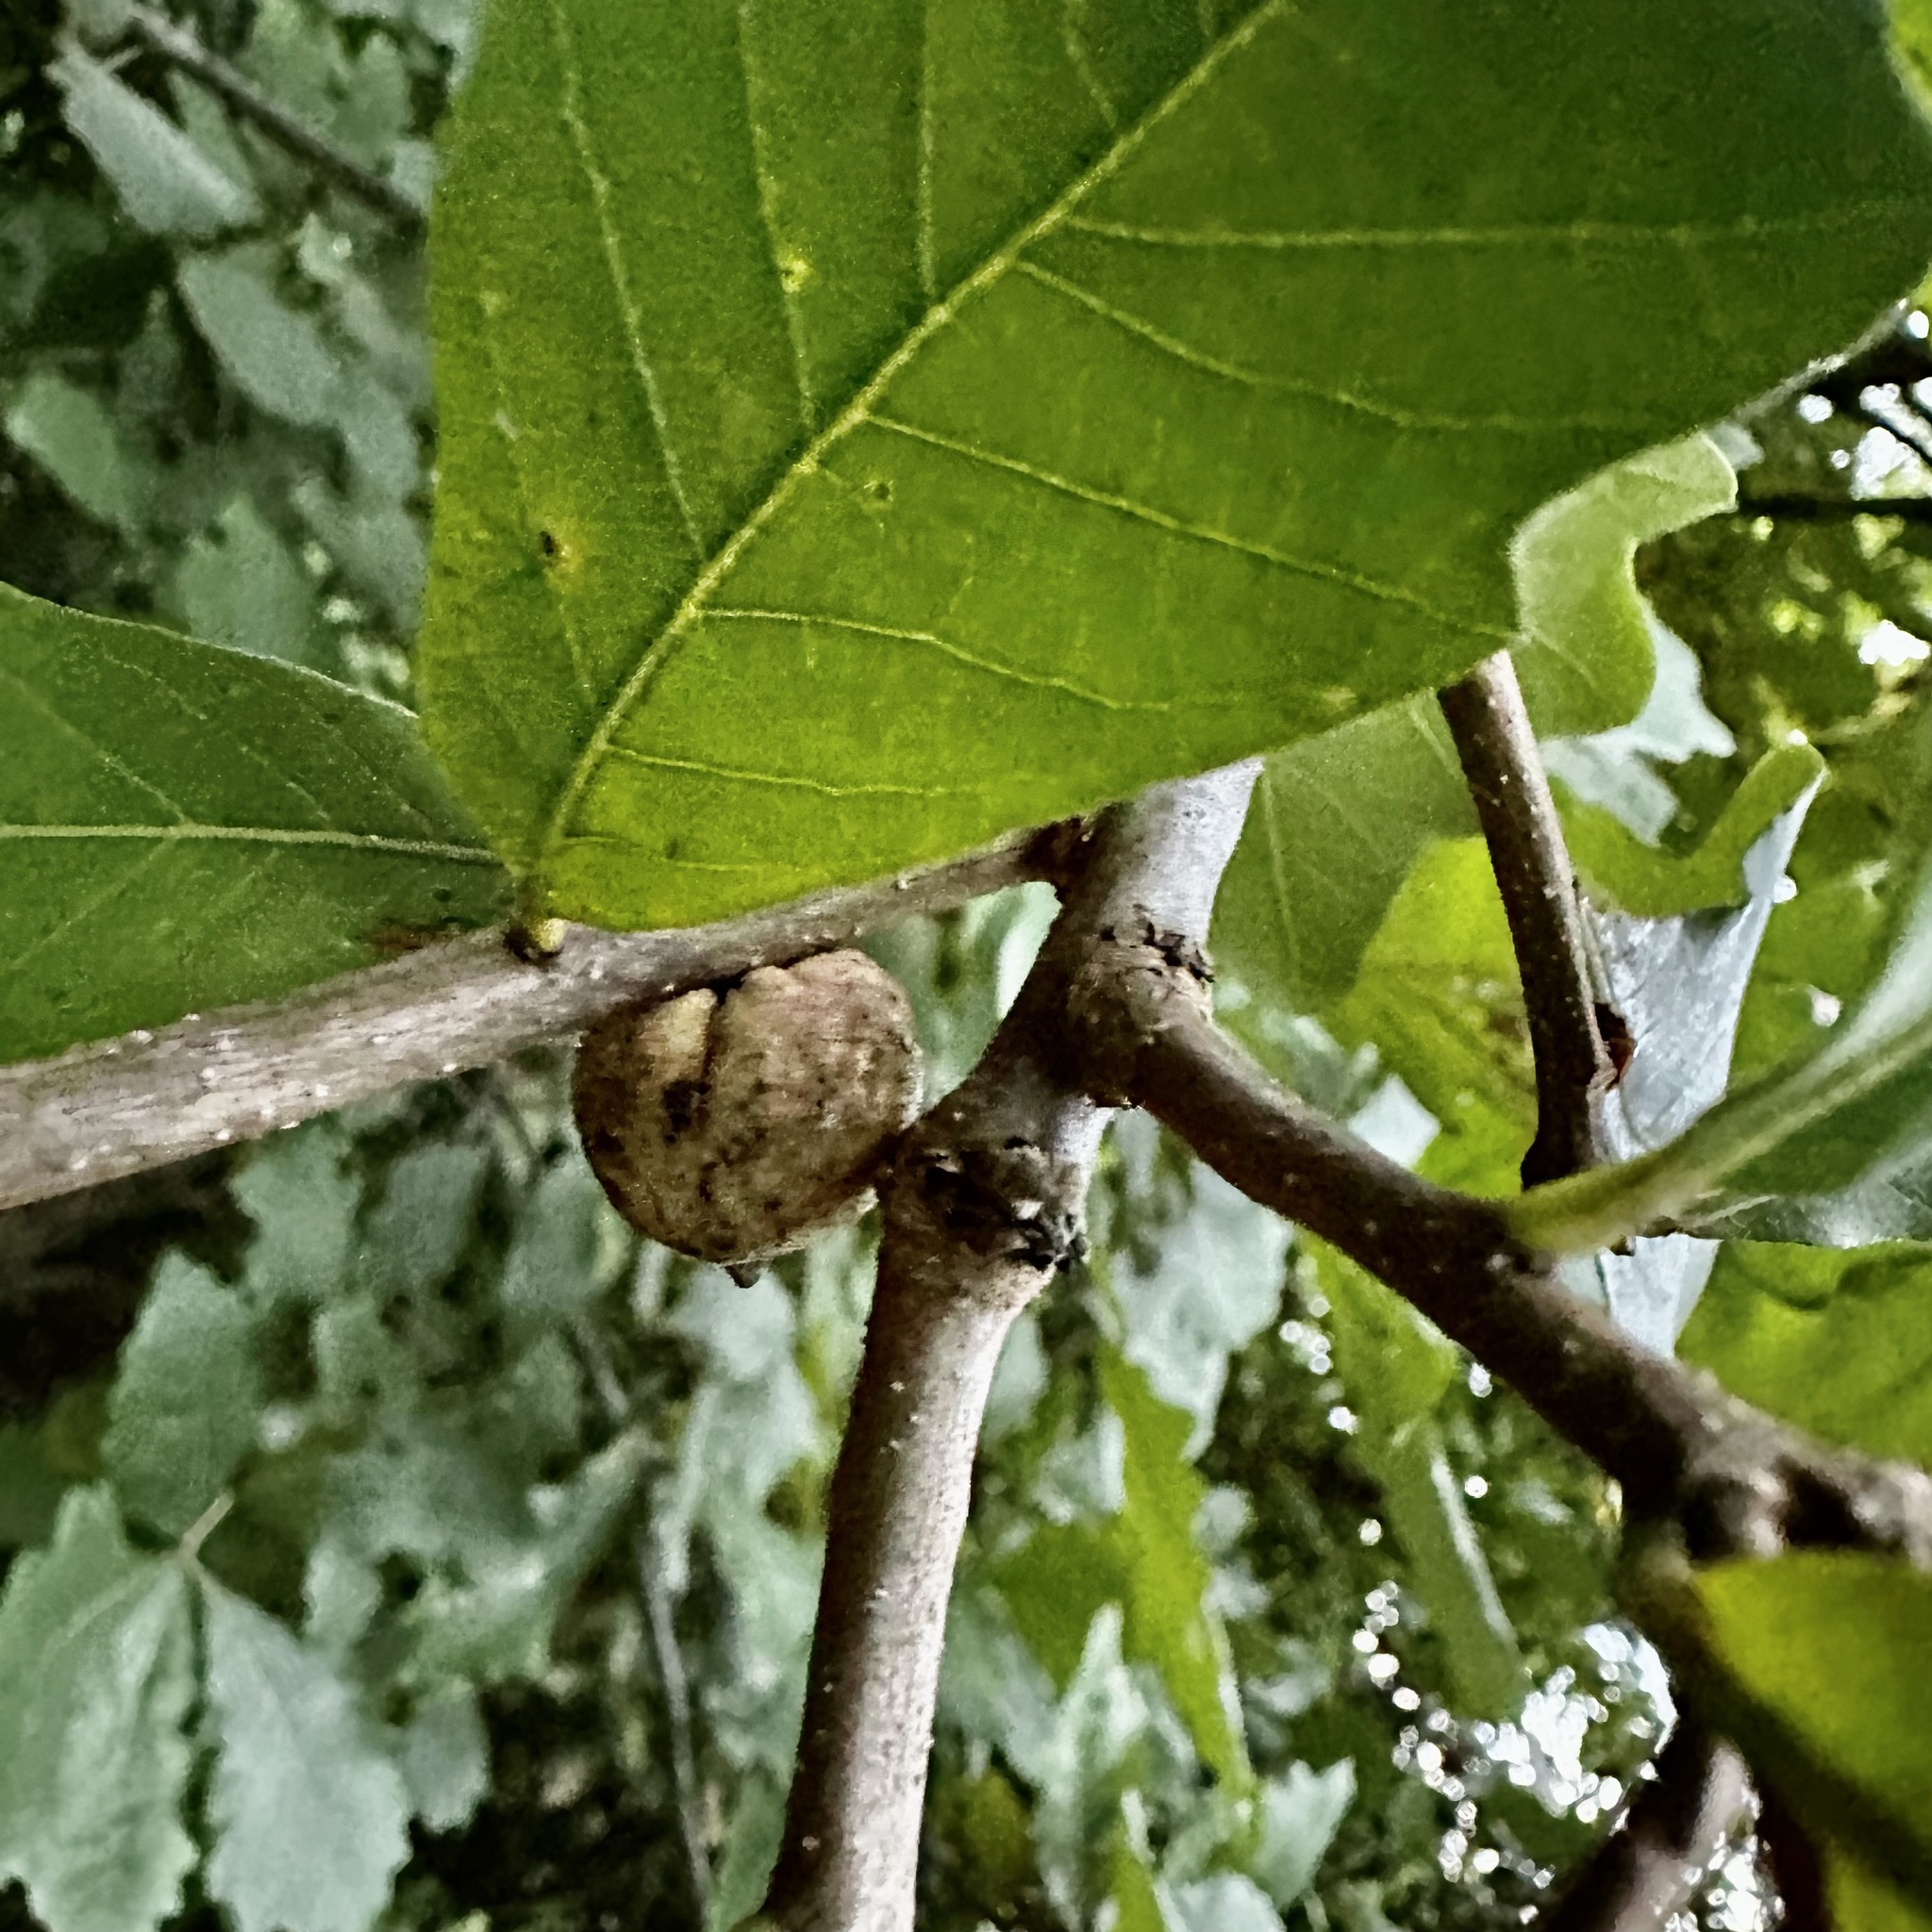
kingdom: Animalia
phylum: Arthropoda
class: Insecta
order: Hymenoptera
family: Cynipidae
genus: Disholcaspis
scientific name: Disholcaspis
